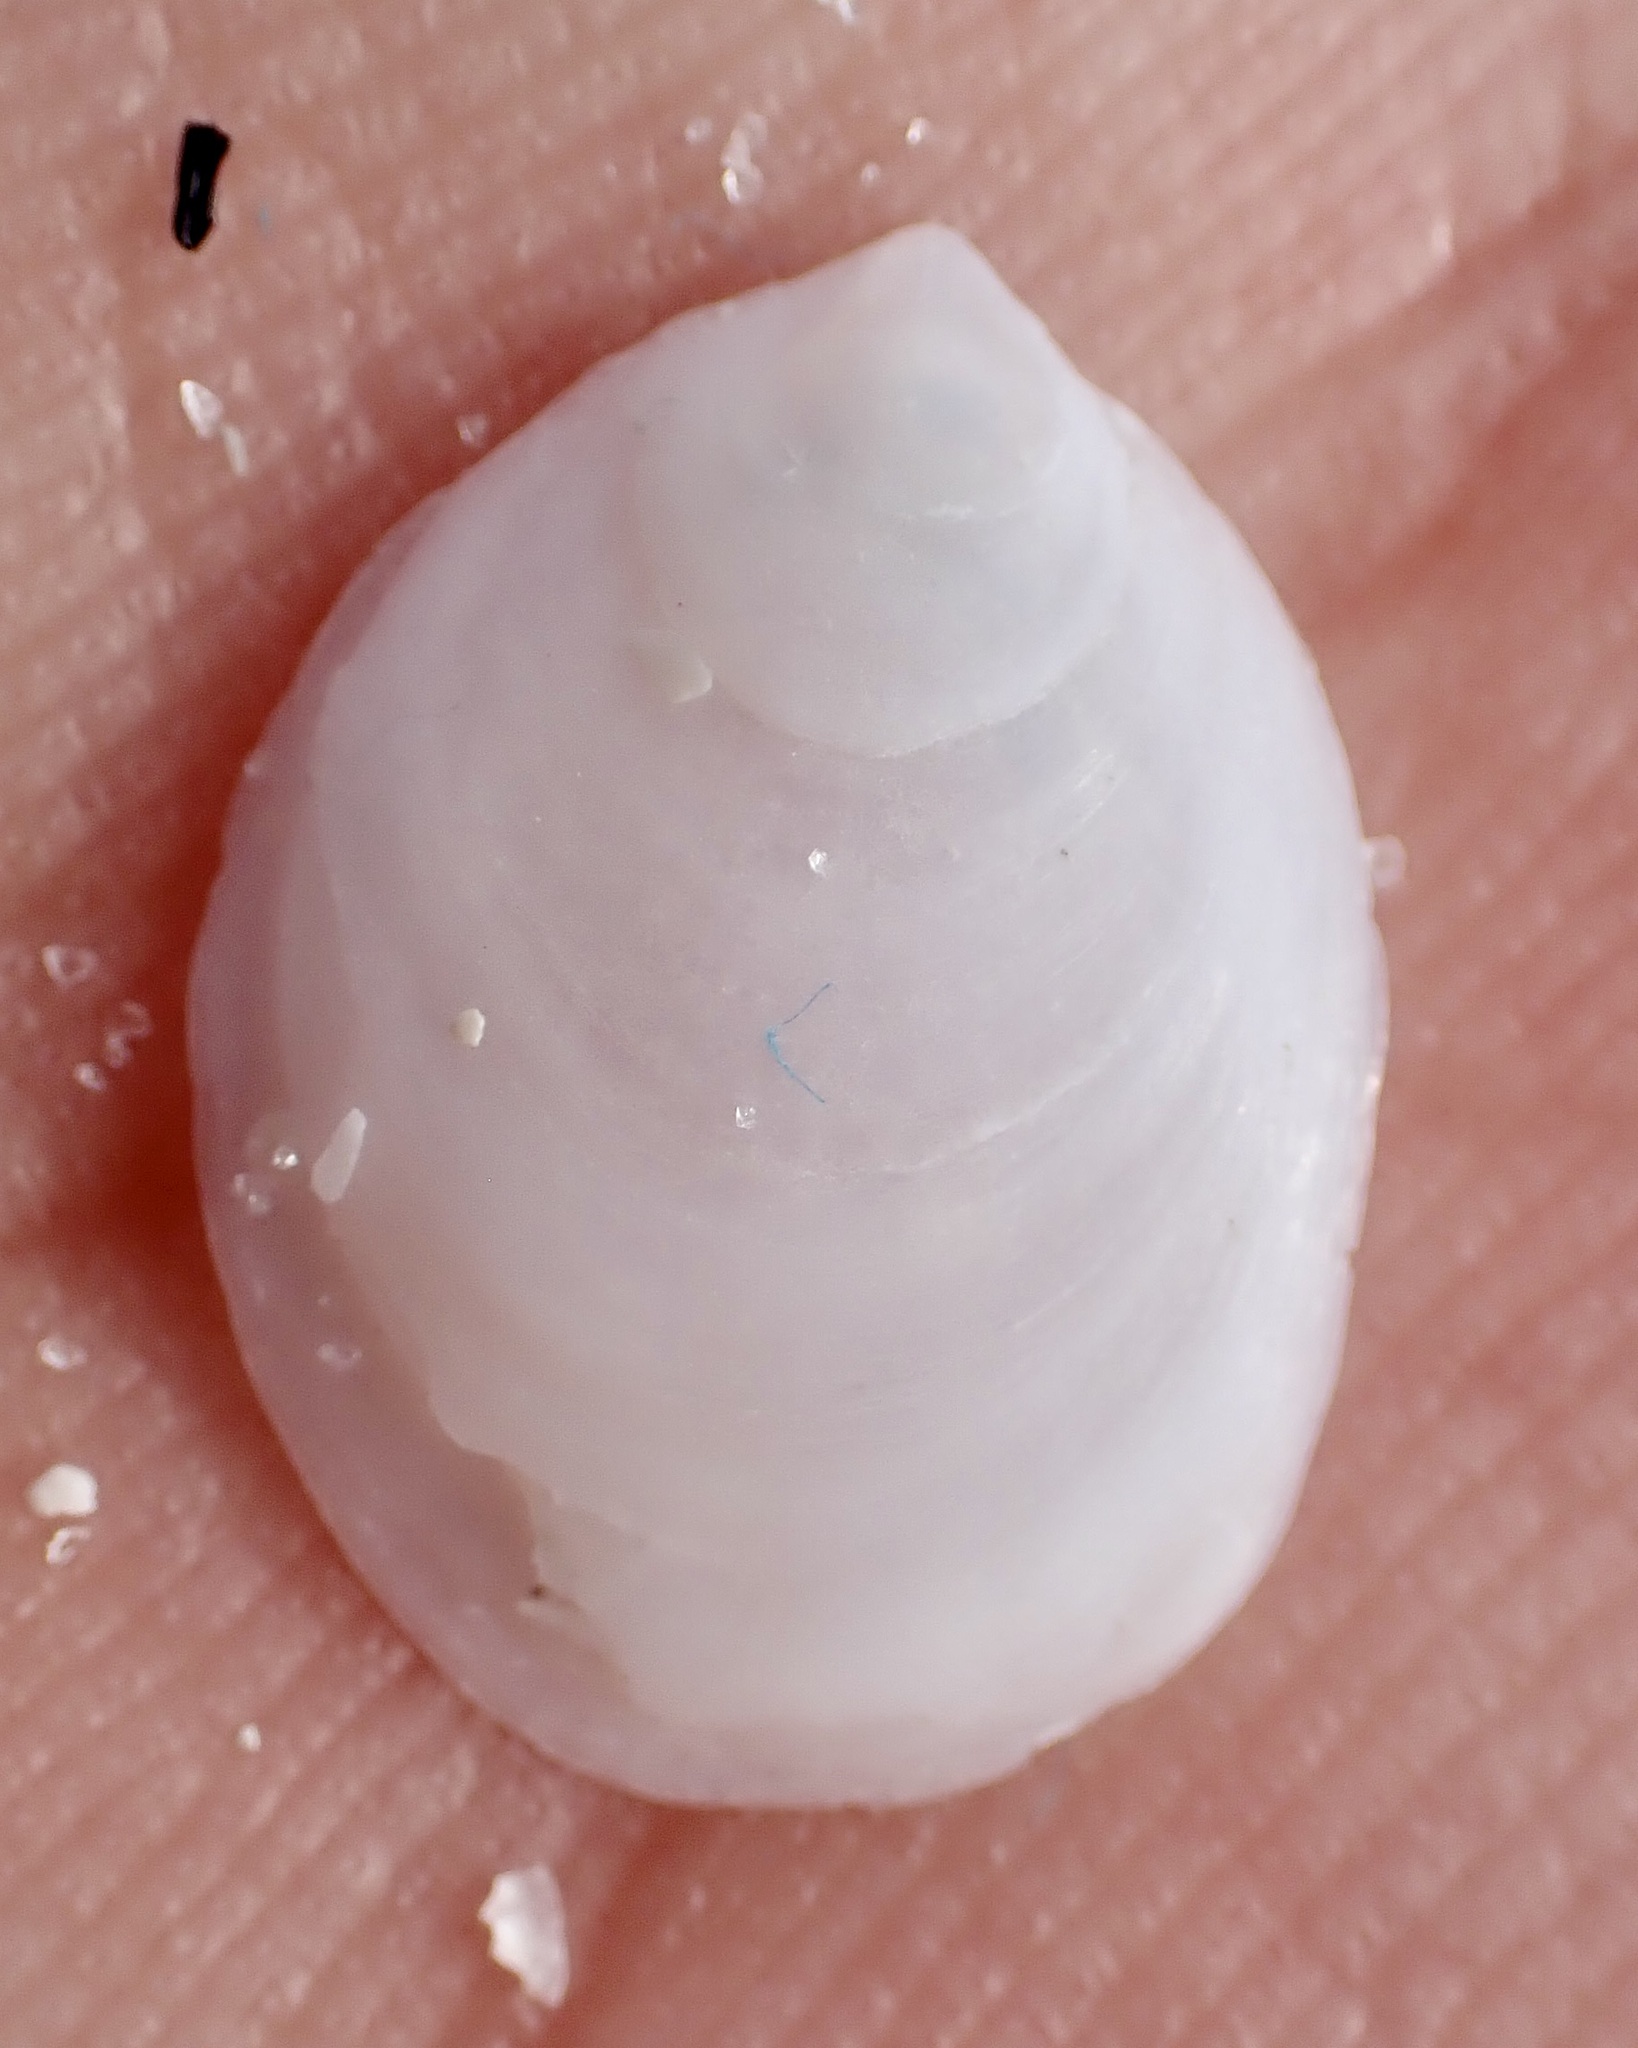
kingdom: Animalia
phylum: Mollusca
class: Gastropoda
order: Littorinimorpha
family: Calyptraeidae
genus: Crepidula
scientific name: Crepidula
